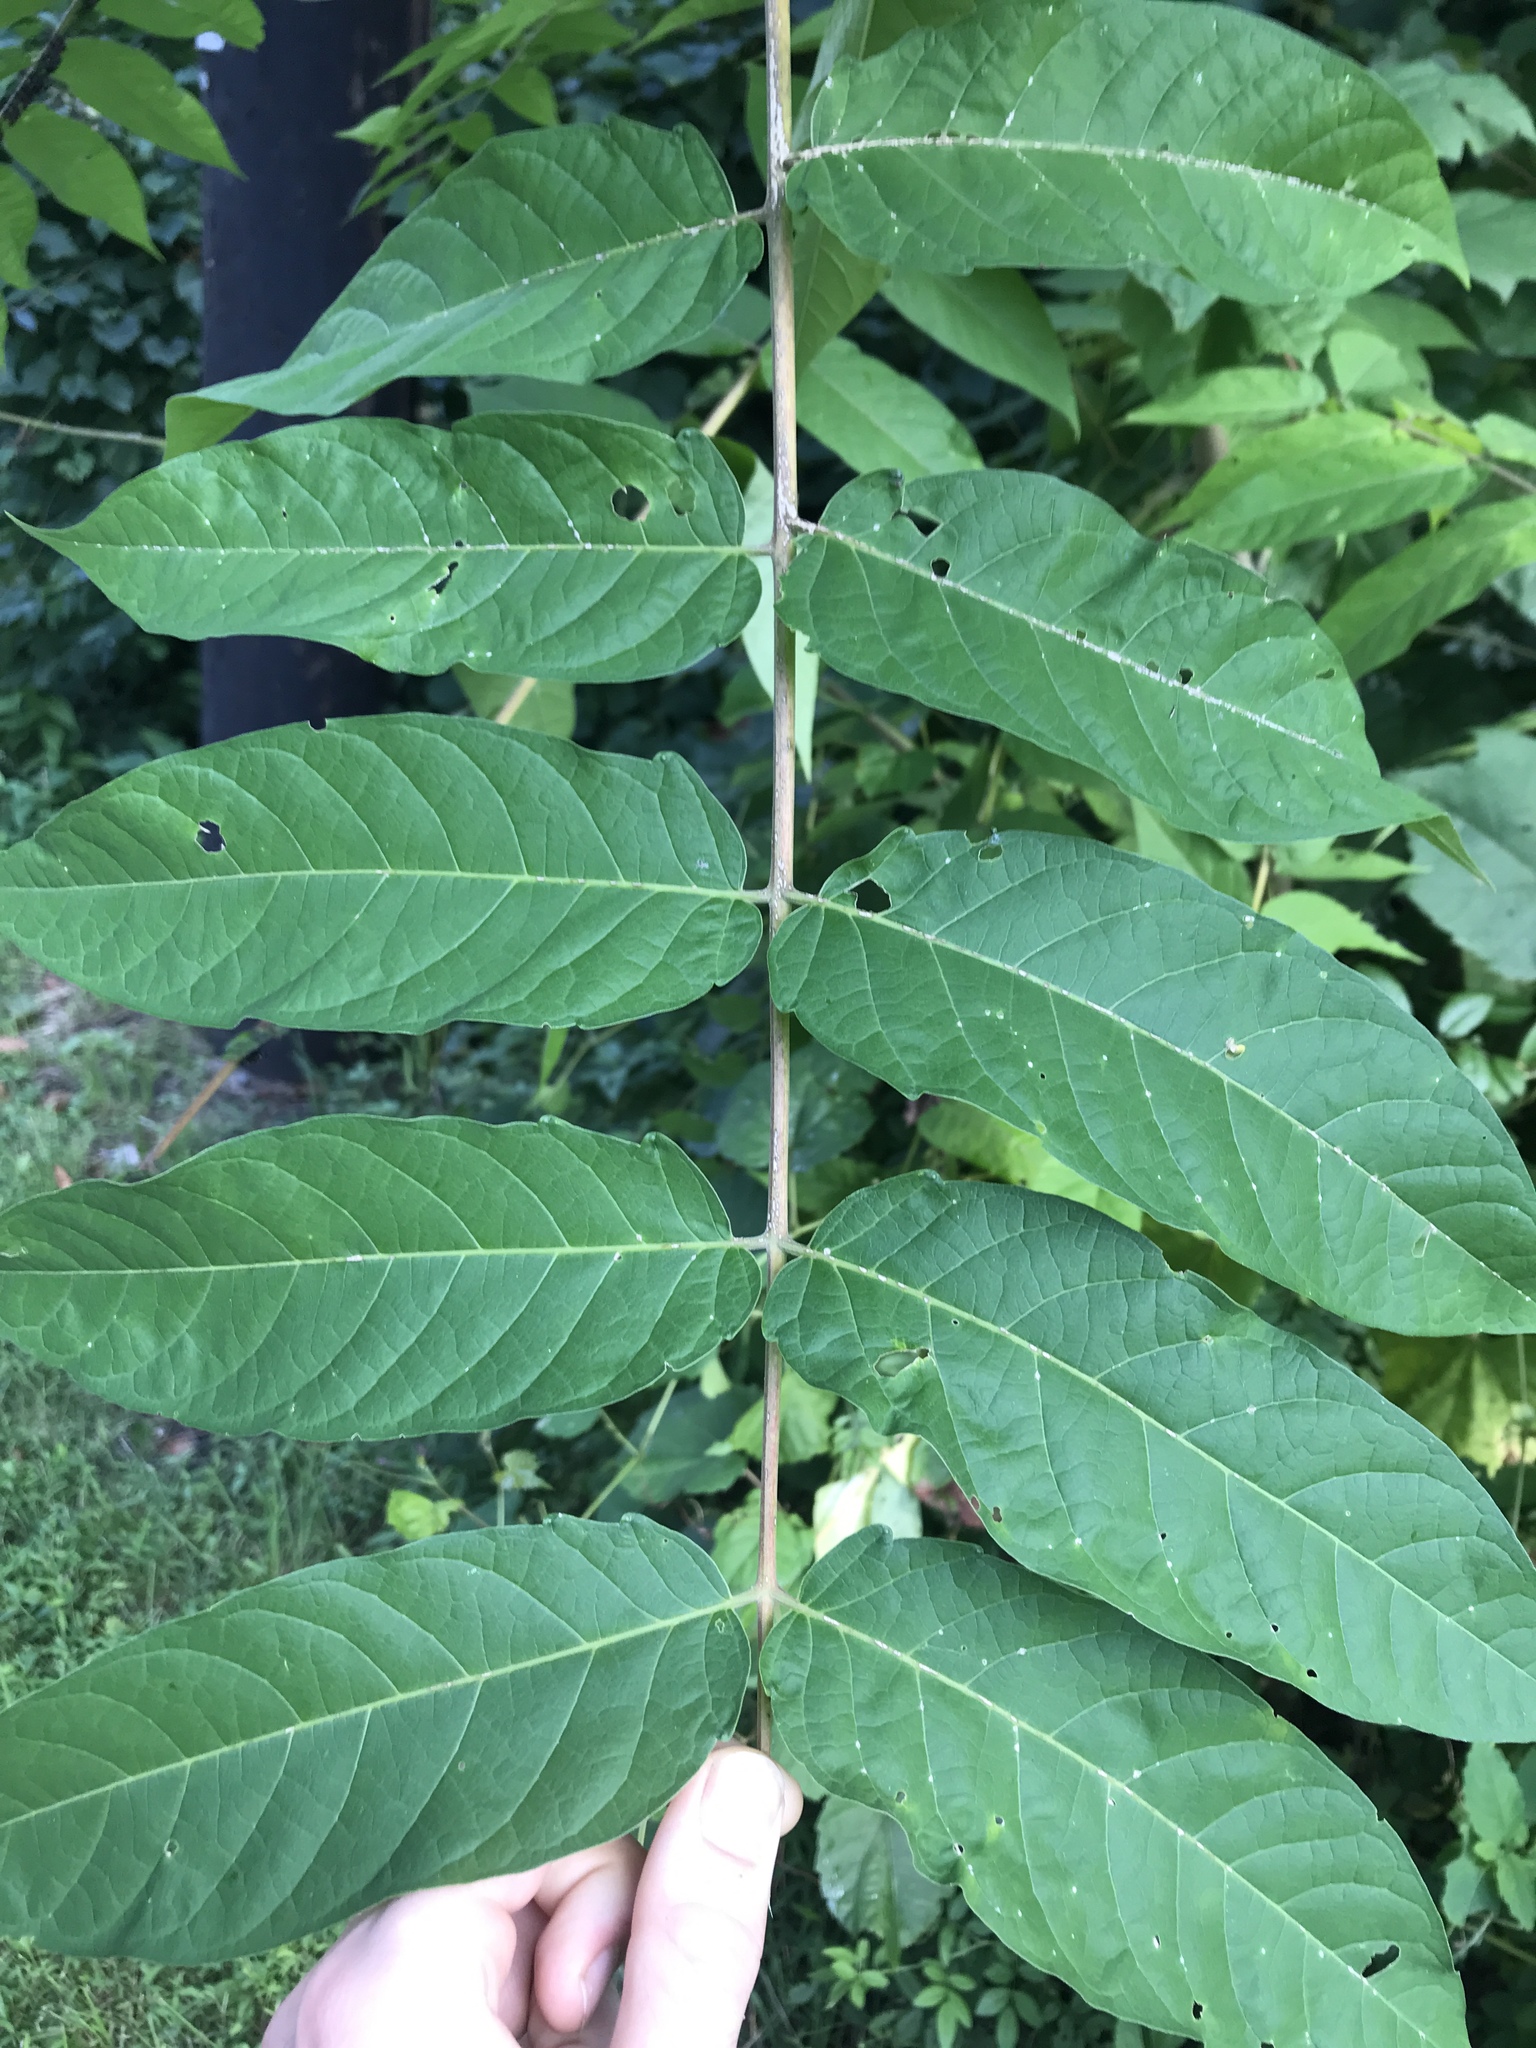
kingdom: Plantae
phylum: Tracheophyta
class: Magnoliopsida
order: Sapindales
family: Simaroubaceae
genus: Ailanthus
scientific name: Ailanthus altissima
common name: Tree-of-heaven
